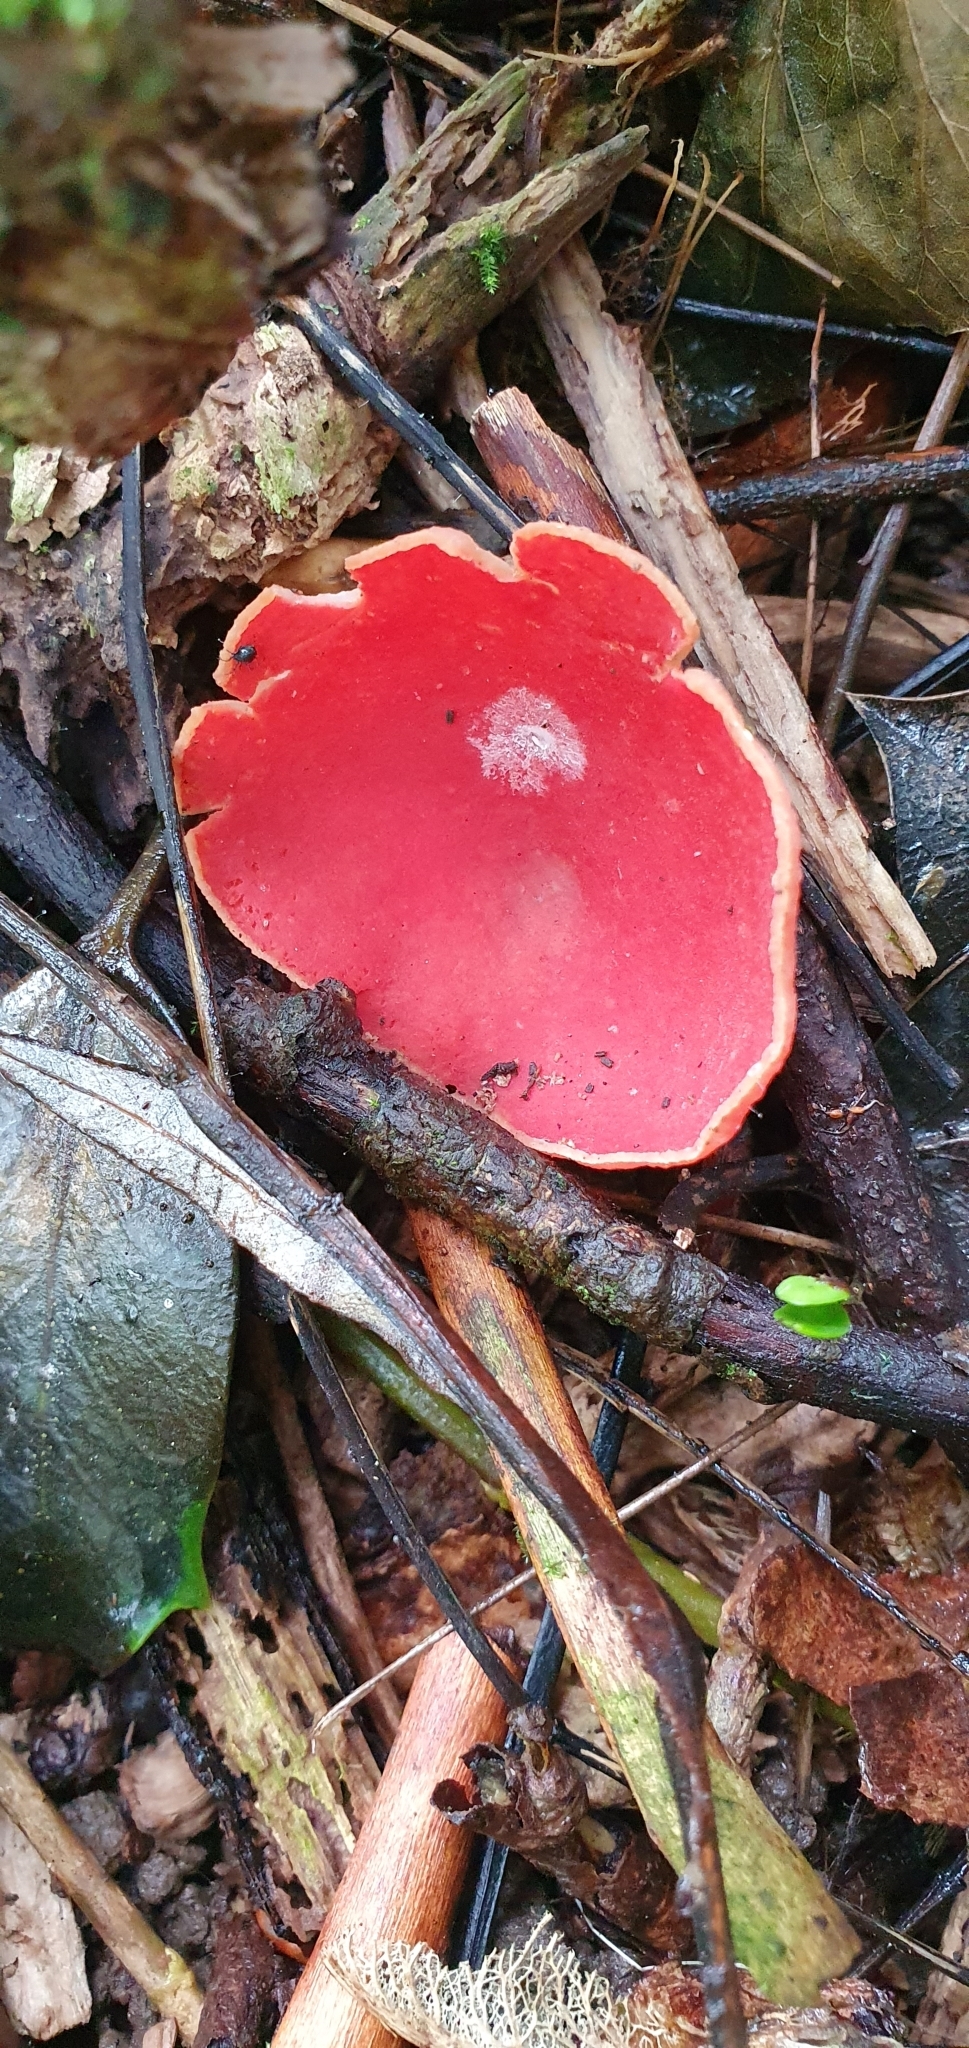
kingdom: Fungi
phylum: Ascomycota
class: Pezizomycetes
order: Pezizales
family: Sarcoscyphaceae
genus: Sarcoscypha
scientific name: Sarcoscypha
